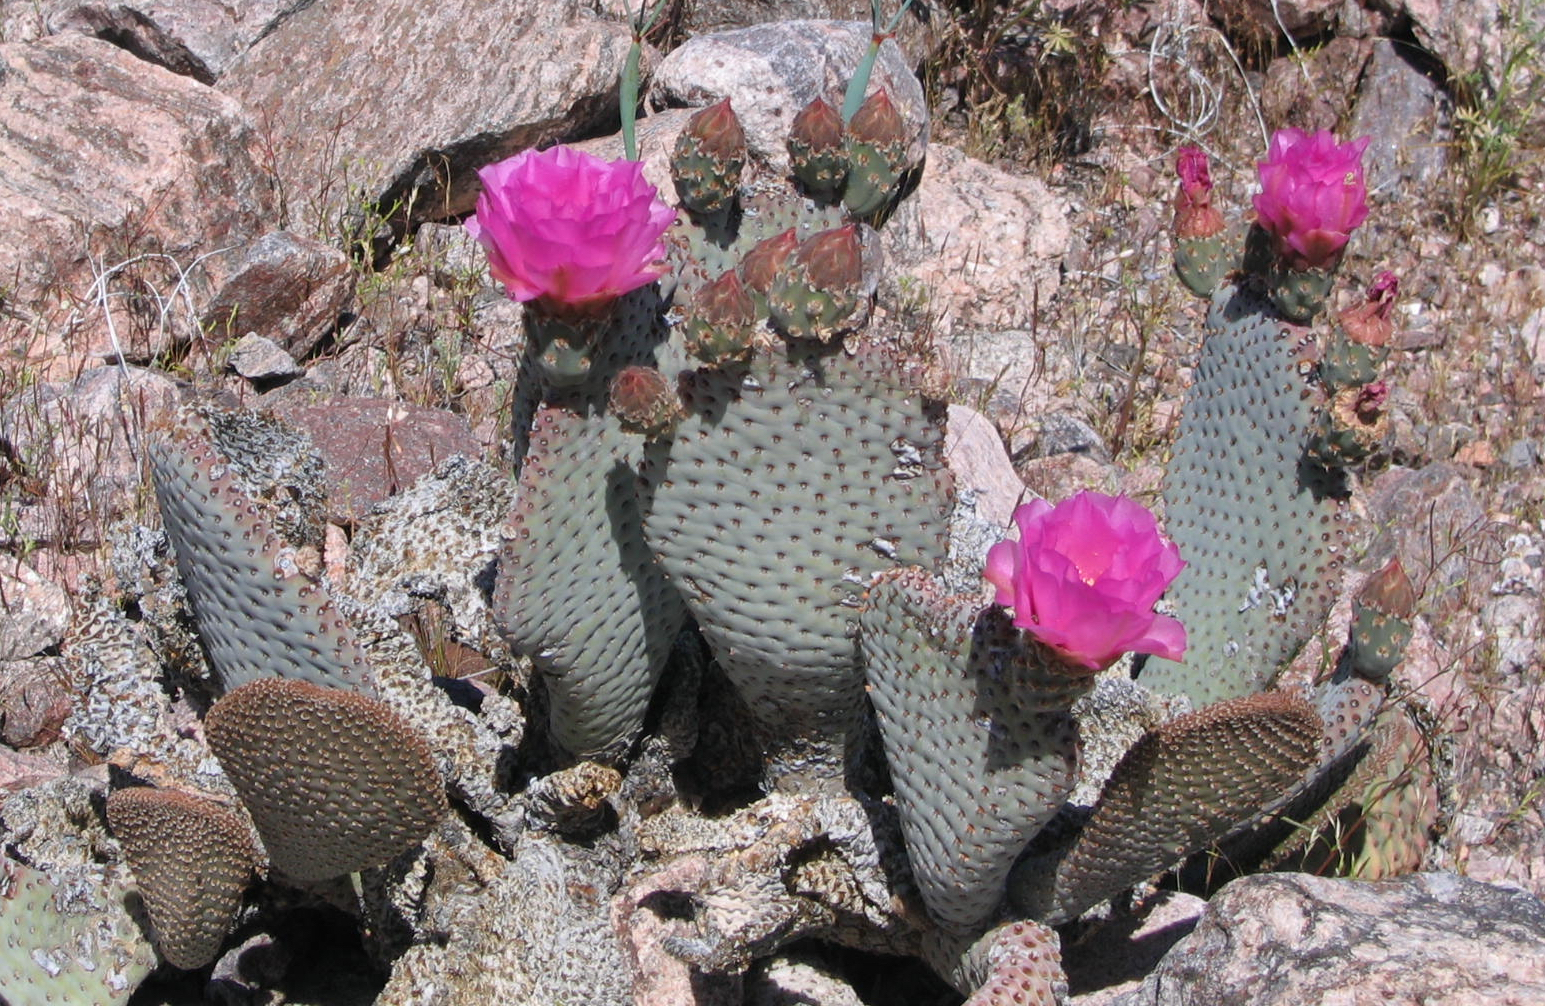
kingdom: Plantae
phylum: Tracheophyta
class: Magnoliopsida
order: Caryophyllales
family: Cactaceae
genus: Opuntia
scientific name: Opuntia basilaris
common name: Beavertail prickly-pear
